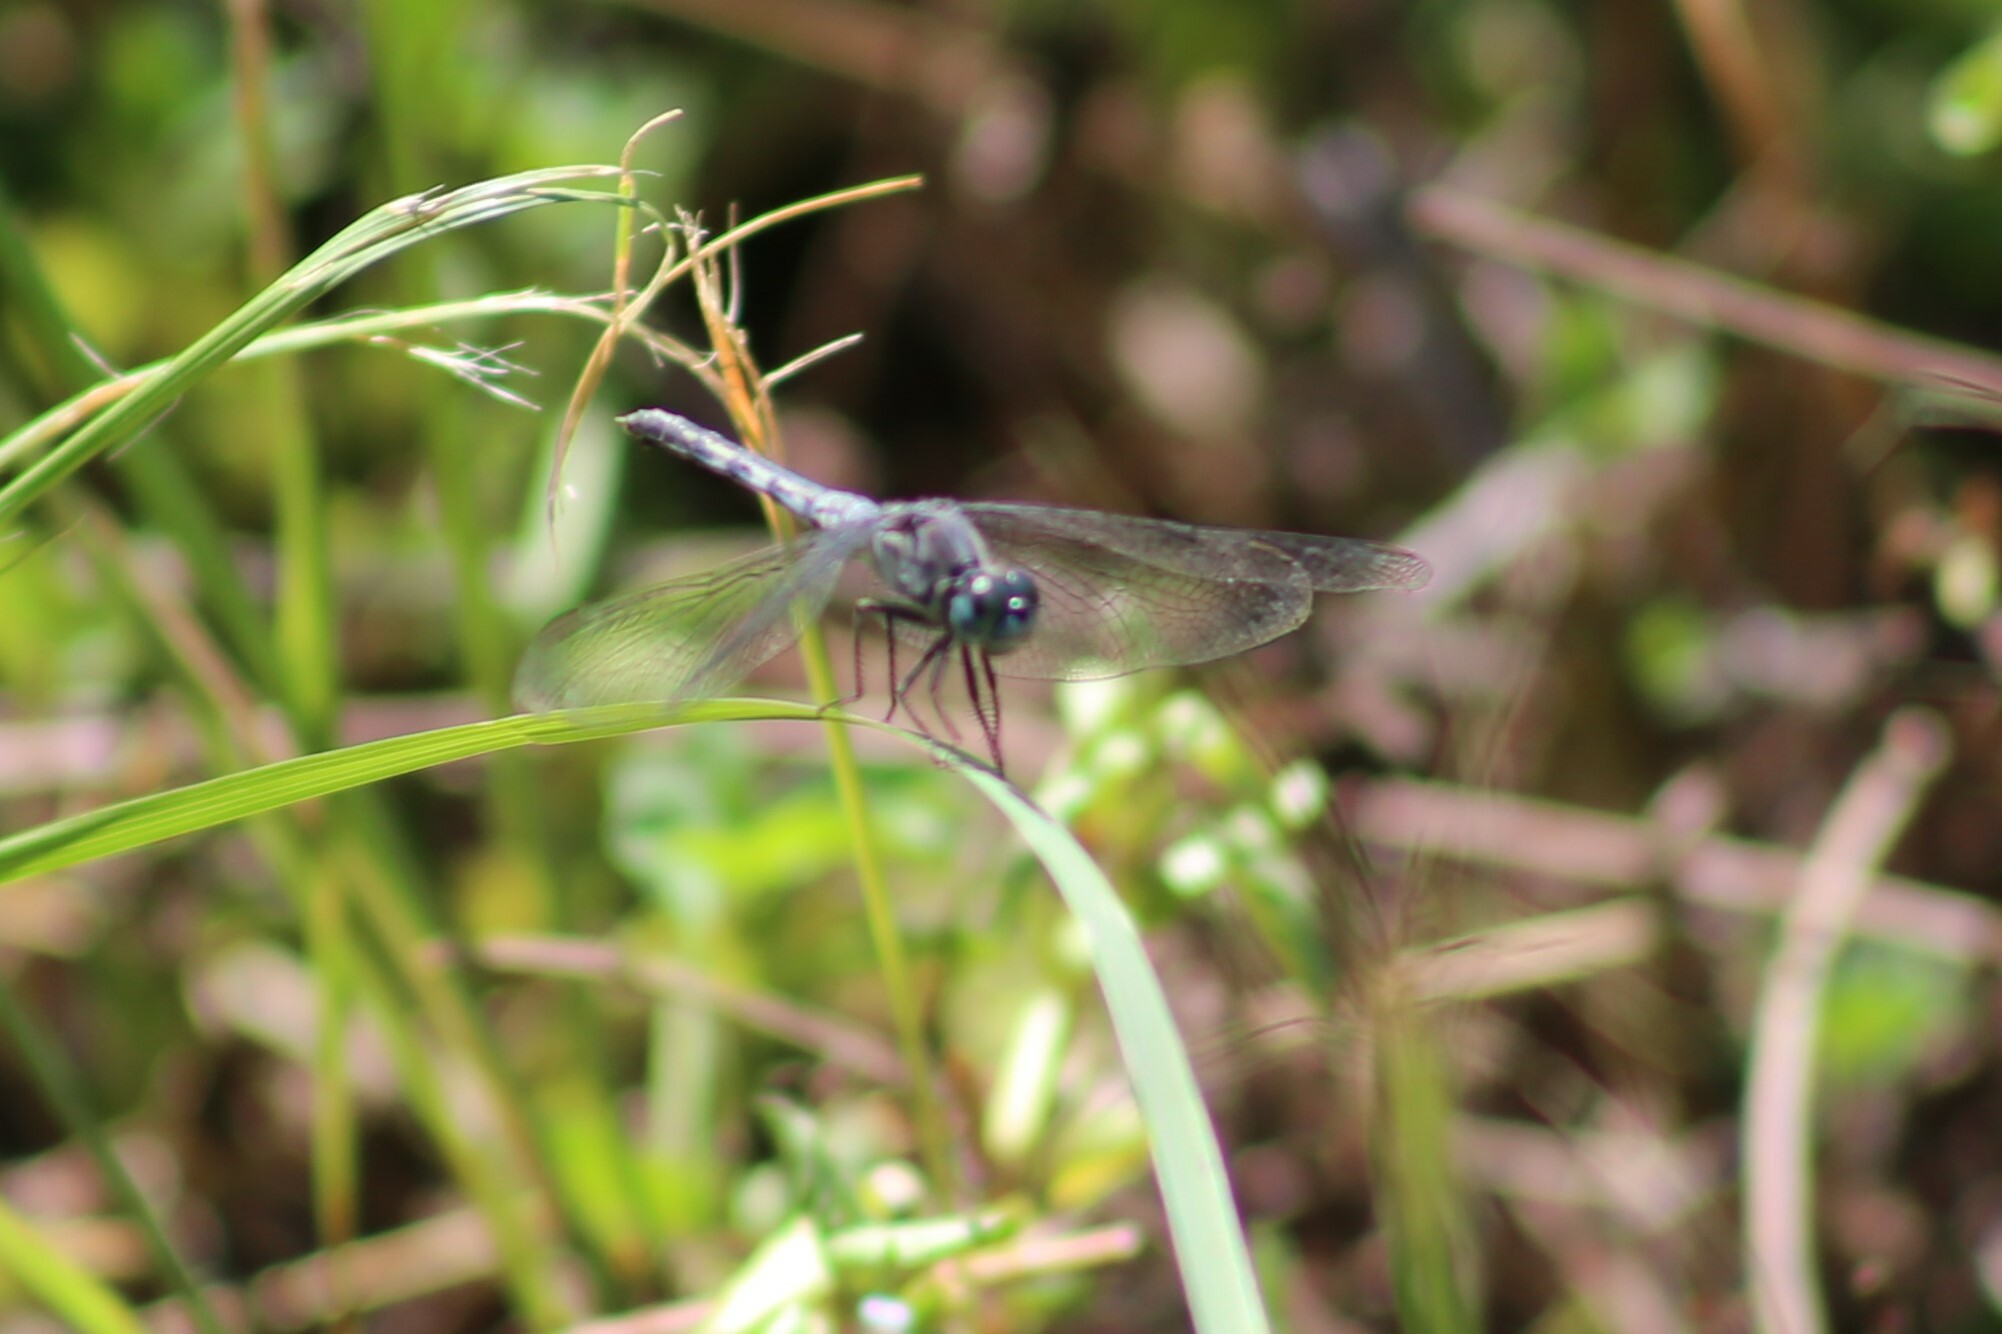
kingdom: Animalia
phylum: Arthropoda
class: Insecta
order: Odonata
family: Libellulidae
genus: Diplacodes
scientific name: Diplacodes trivialis
